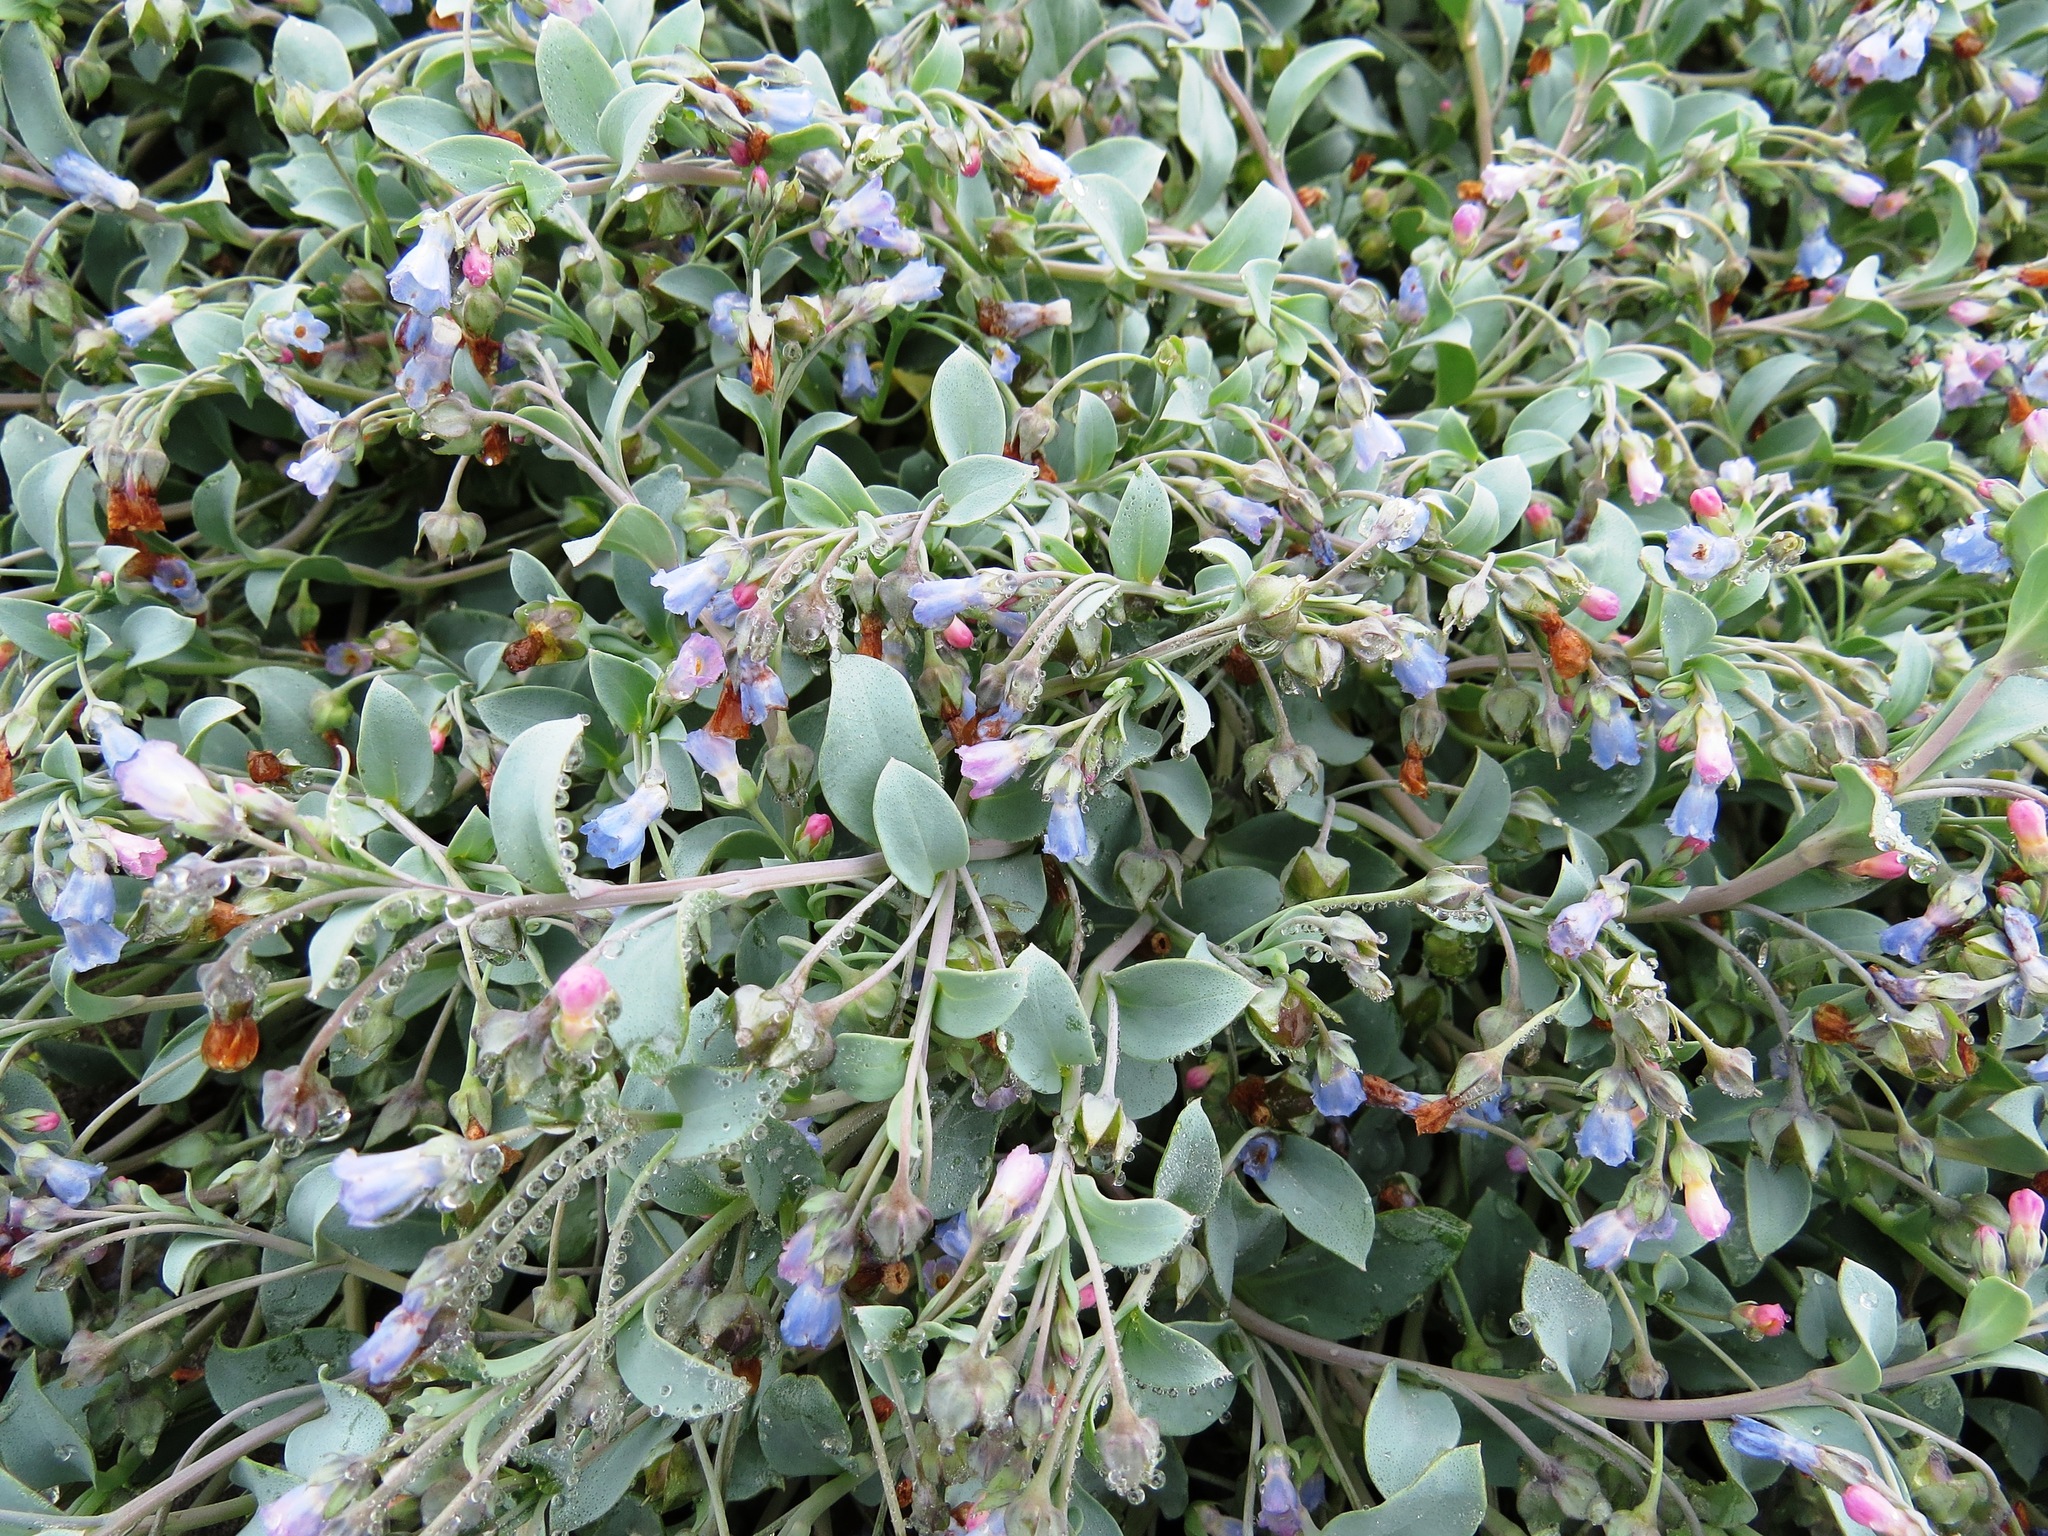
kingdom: Plantae
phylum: Tracheophyta
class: Magnoliopsida
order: Boraginales
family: Boraginaceae
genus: Mertensia
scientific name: Mertensia maritima
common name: Oysterplant
